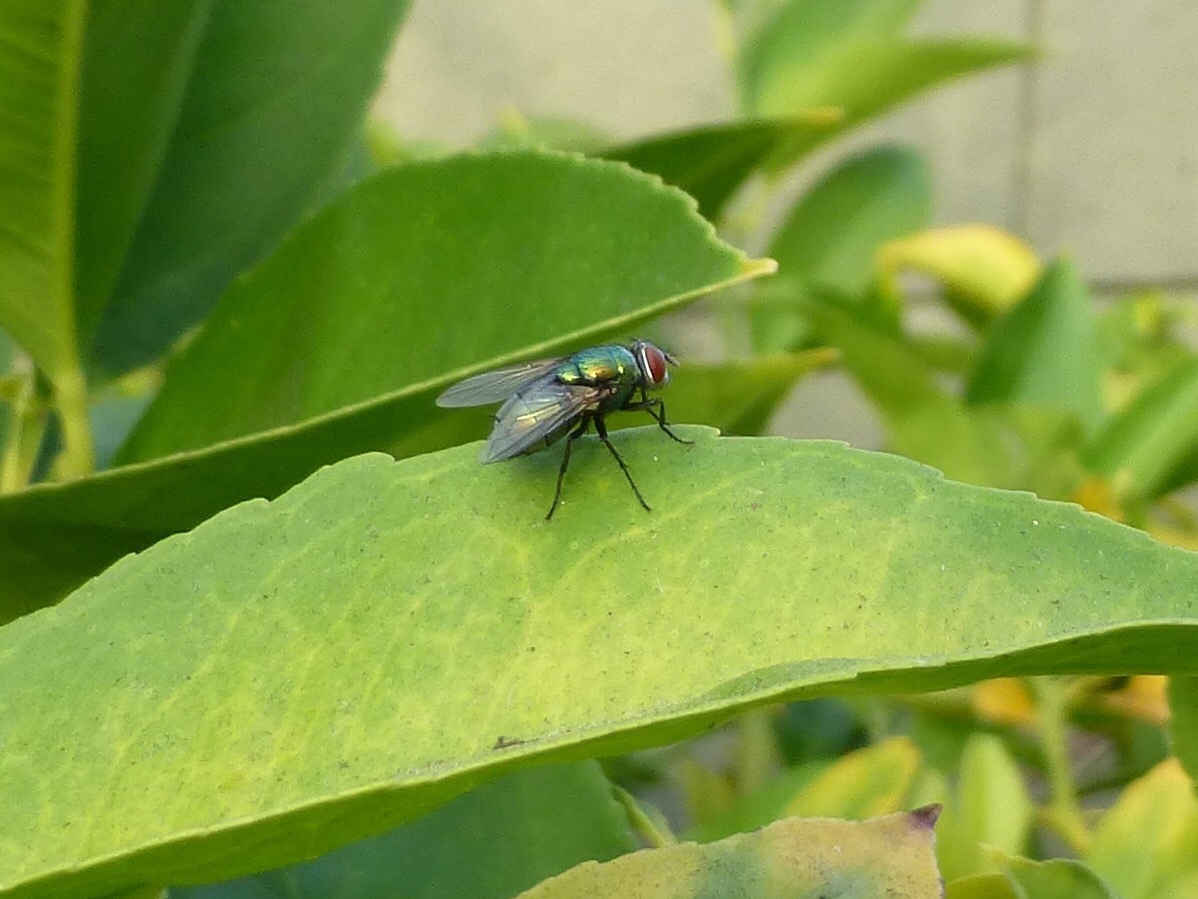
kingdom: Animalia
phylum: Arthropoda
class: Insecta
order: Diptera
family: Calliphoridae
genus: Lucilia
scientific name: Lucilia sericata
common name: Blow fly
